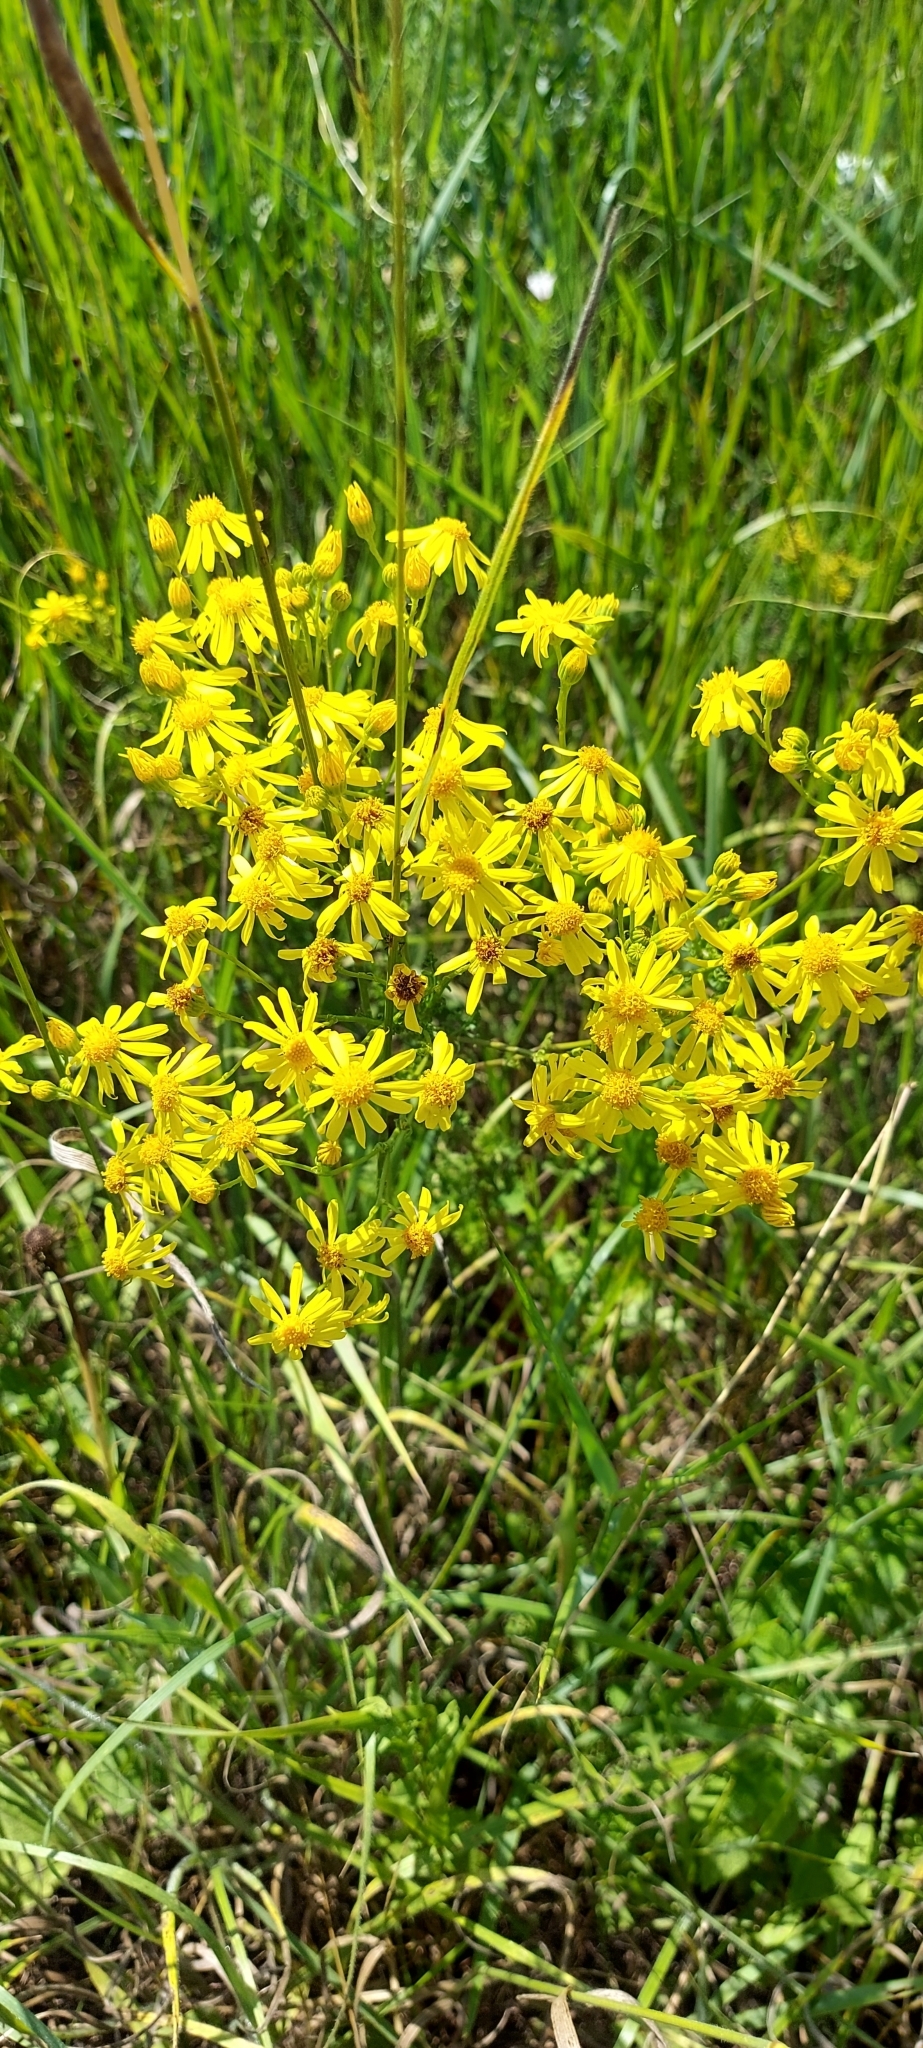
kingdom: Plantae
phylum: Tracheophyta
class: Magnoliopsida
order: Asterales
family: Asteraceae
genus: Jacobaea
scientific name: Jacobaea vulgaris
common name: Stinking willie
